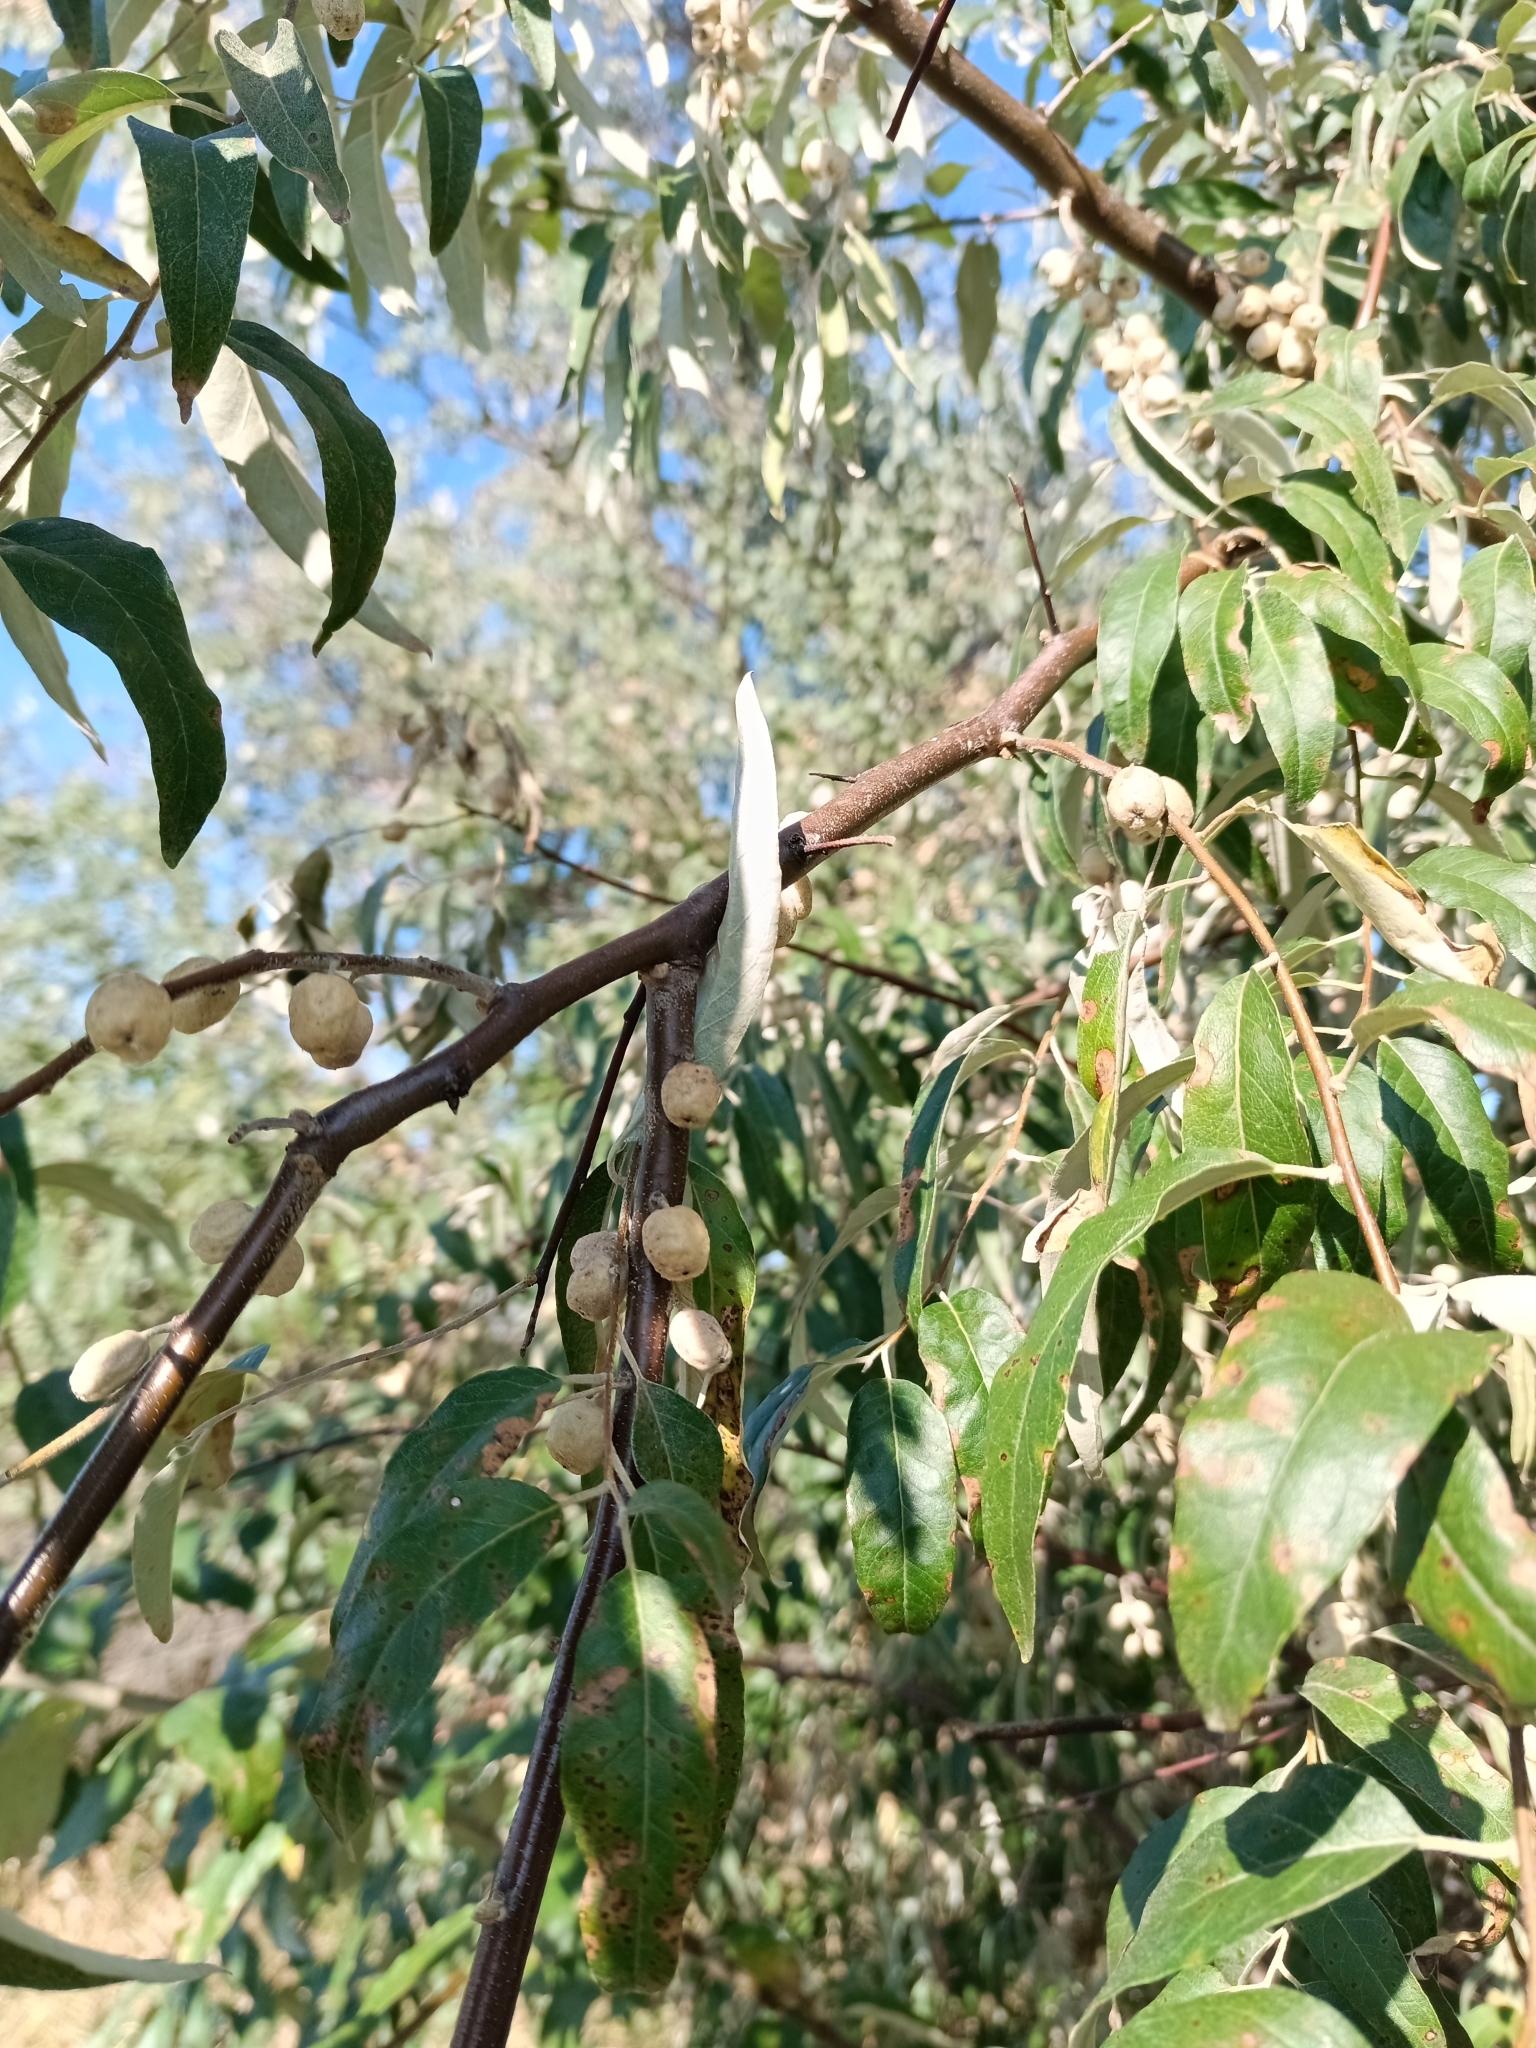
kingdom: Plantae
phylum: Tracheophyta
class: Magnoliopsida
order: Rosales
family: Elaeagnaceae
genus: Elaeagnus
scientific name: Elaeagnus angustifolia
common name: Russian olive
